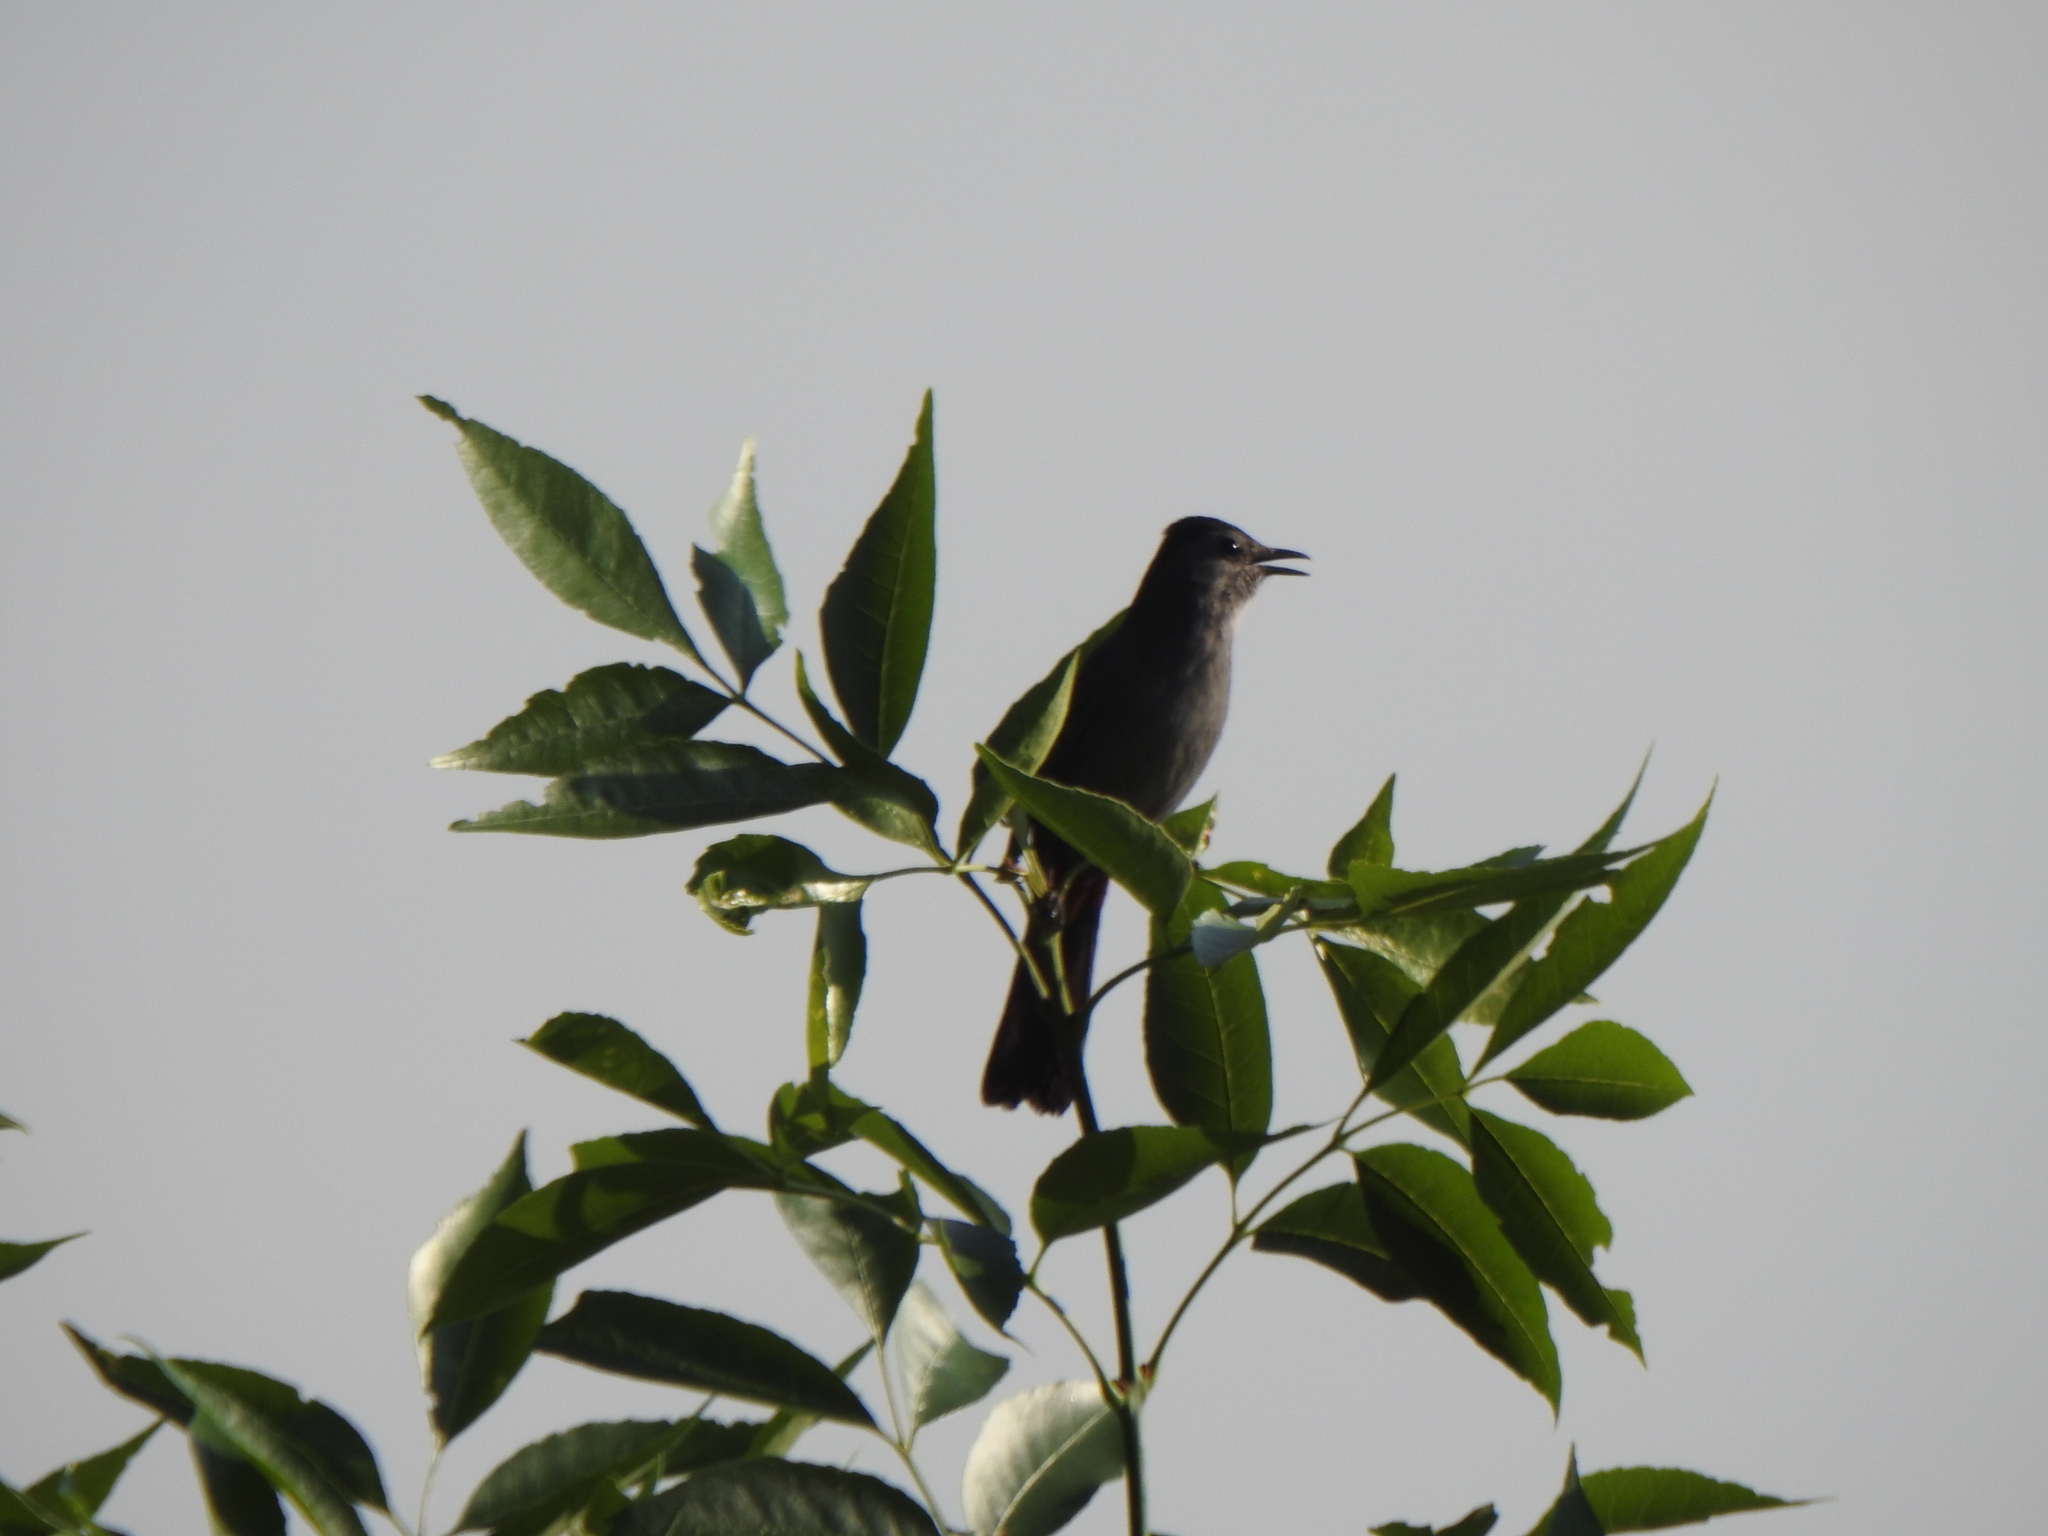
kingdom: Animalia
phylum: Chordata
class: Aves
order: Passeriformes
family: Mimidae
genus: Dumetella
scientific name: Dumetella carolinensis
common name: Gray catbird
